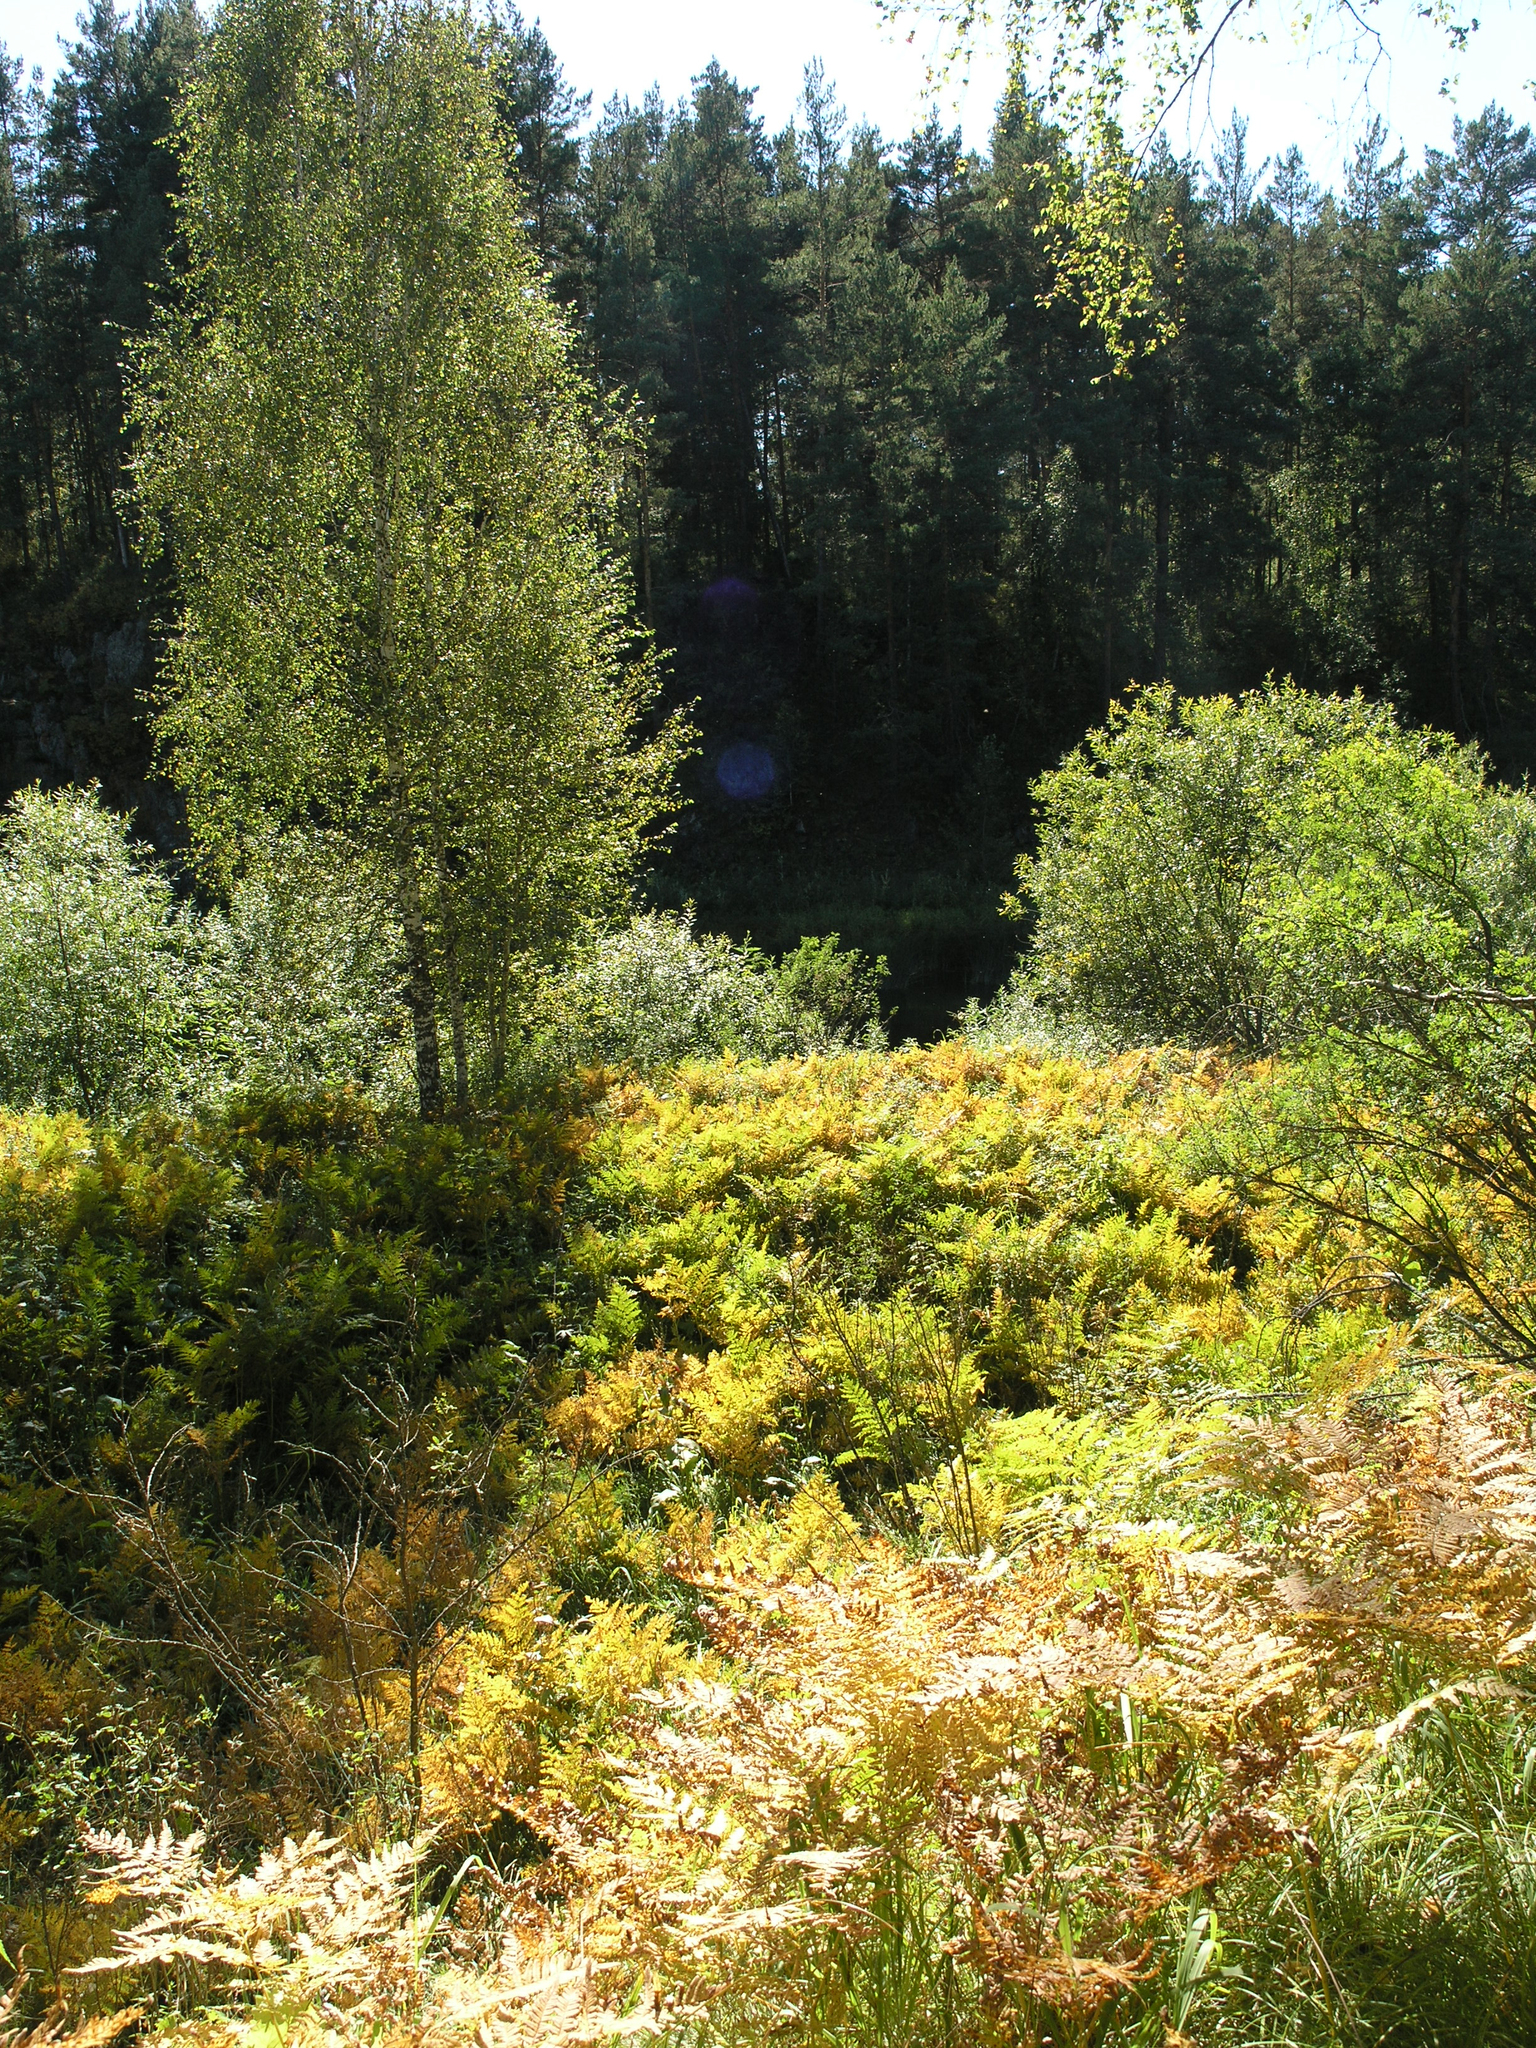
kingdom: Plantae
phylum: Tracheophyta
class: Polypodiopsida
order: Polypodiales
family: Dennstaedtiaceae
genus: Pteridium
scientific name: Pteridium aquilinum
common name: Bracken
